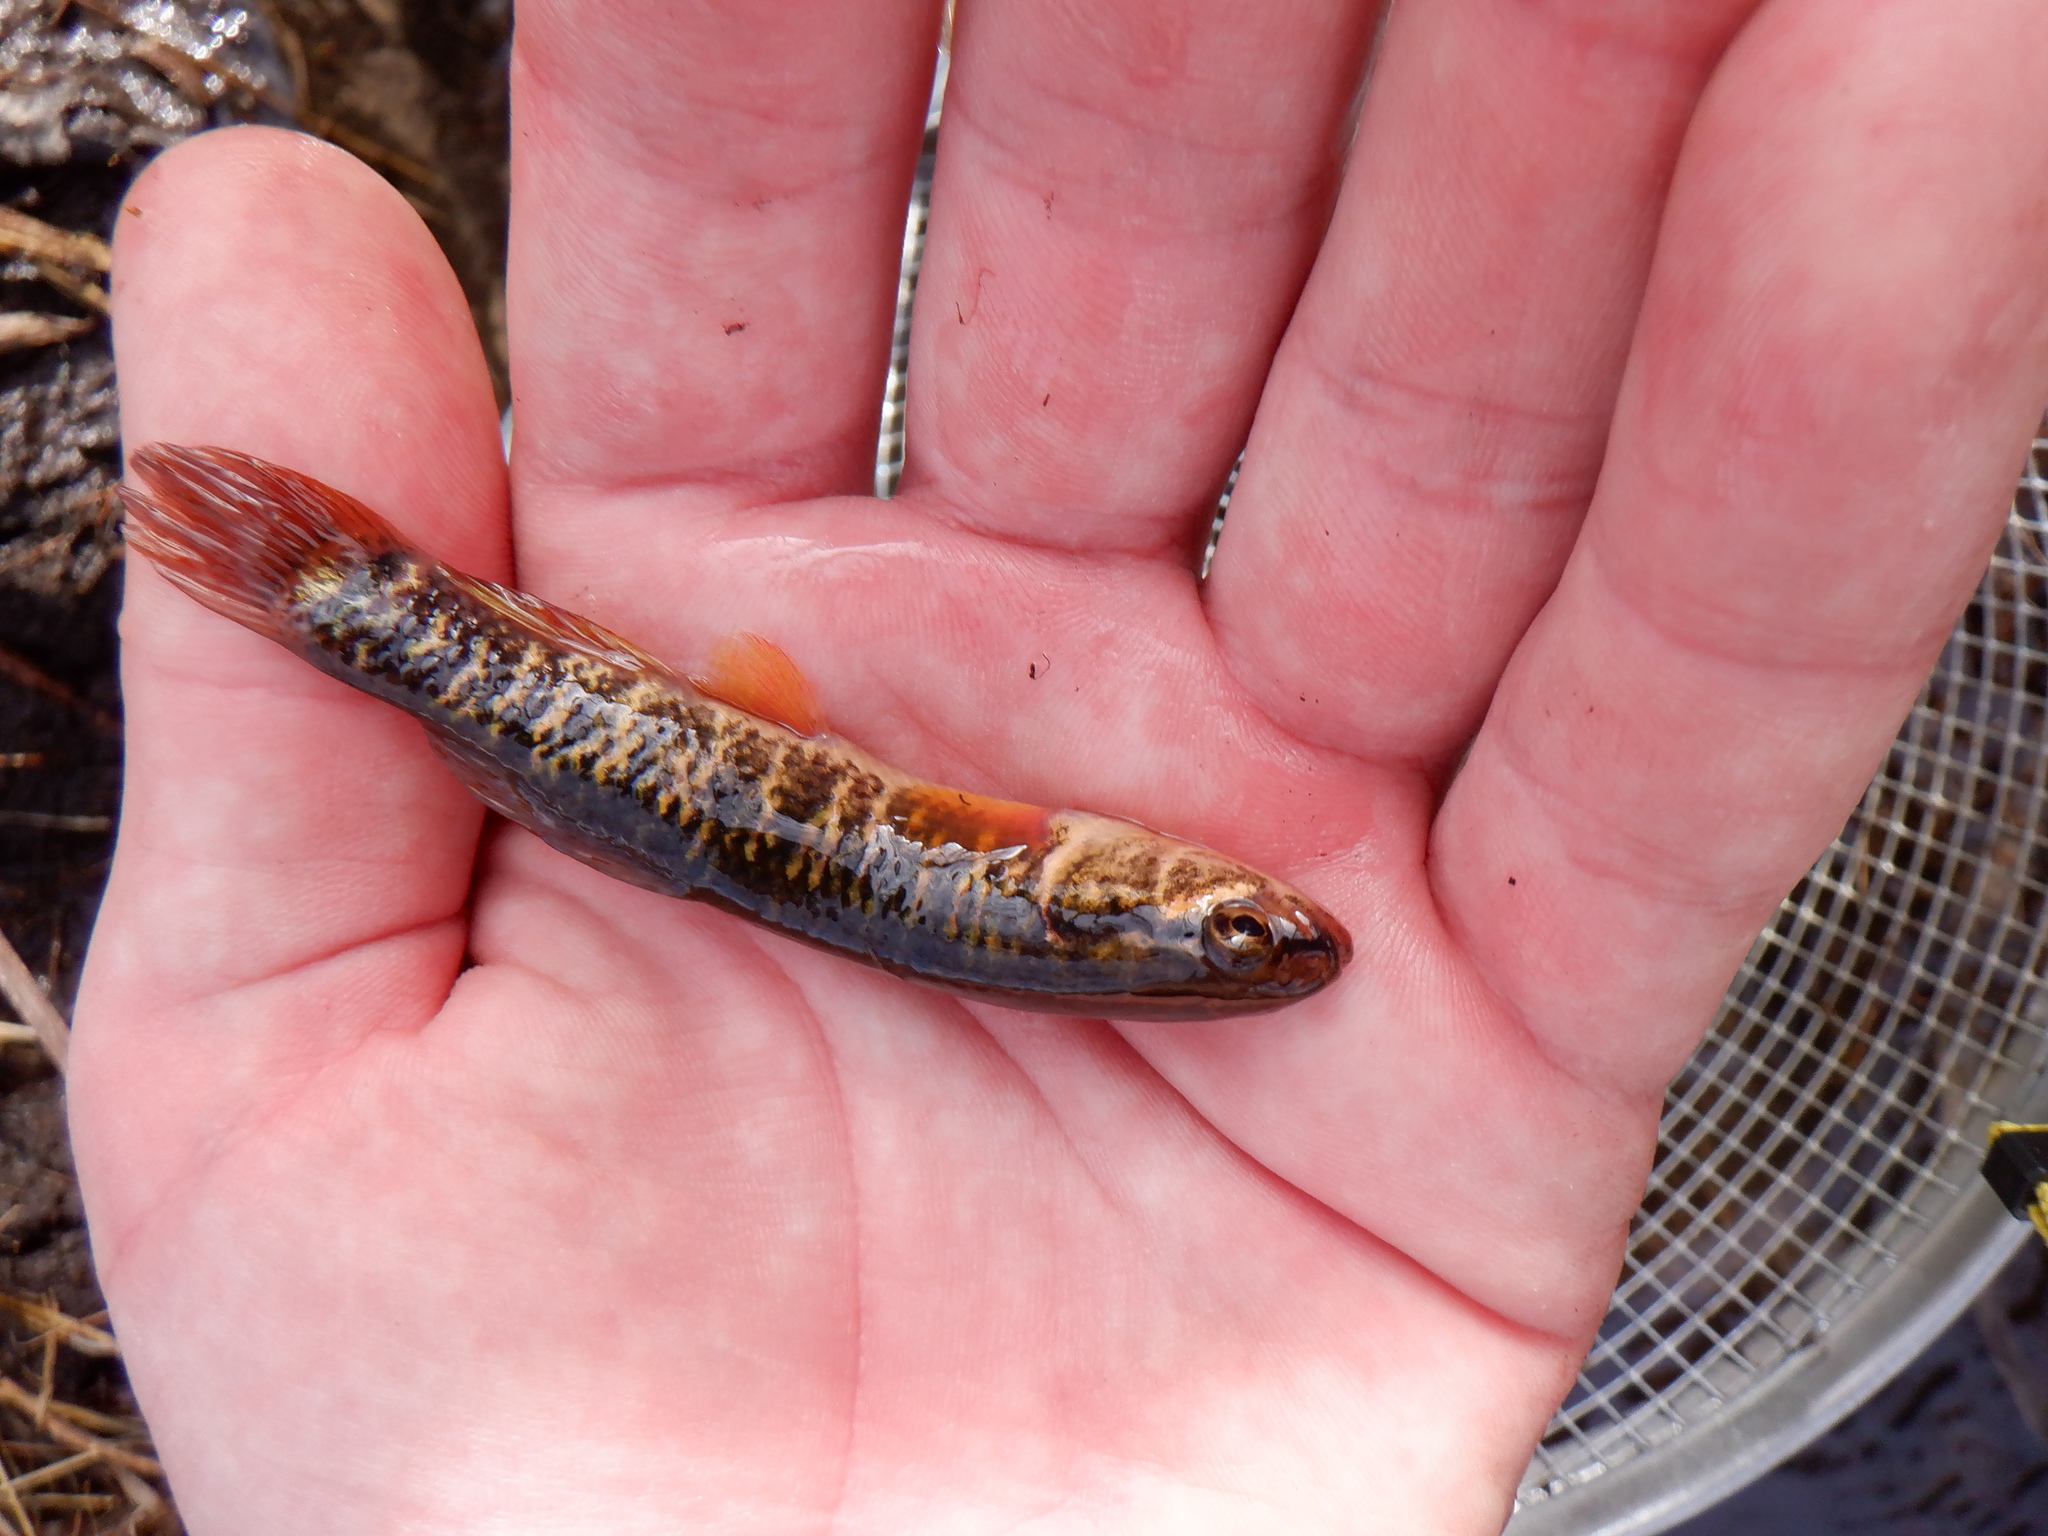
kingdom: Animalia
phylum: Chordata
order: Esociformes
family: Umbridae
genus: Umbra
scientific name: Umbra limi
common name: Central mudminnow
